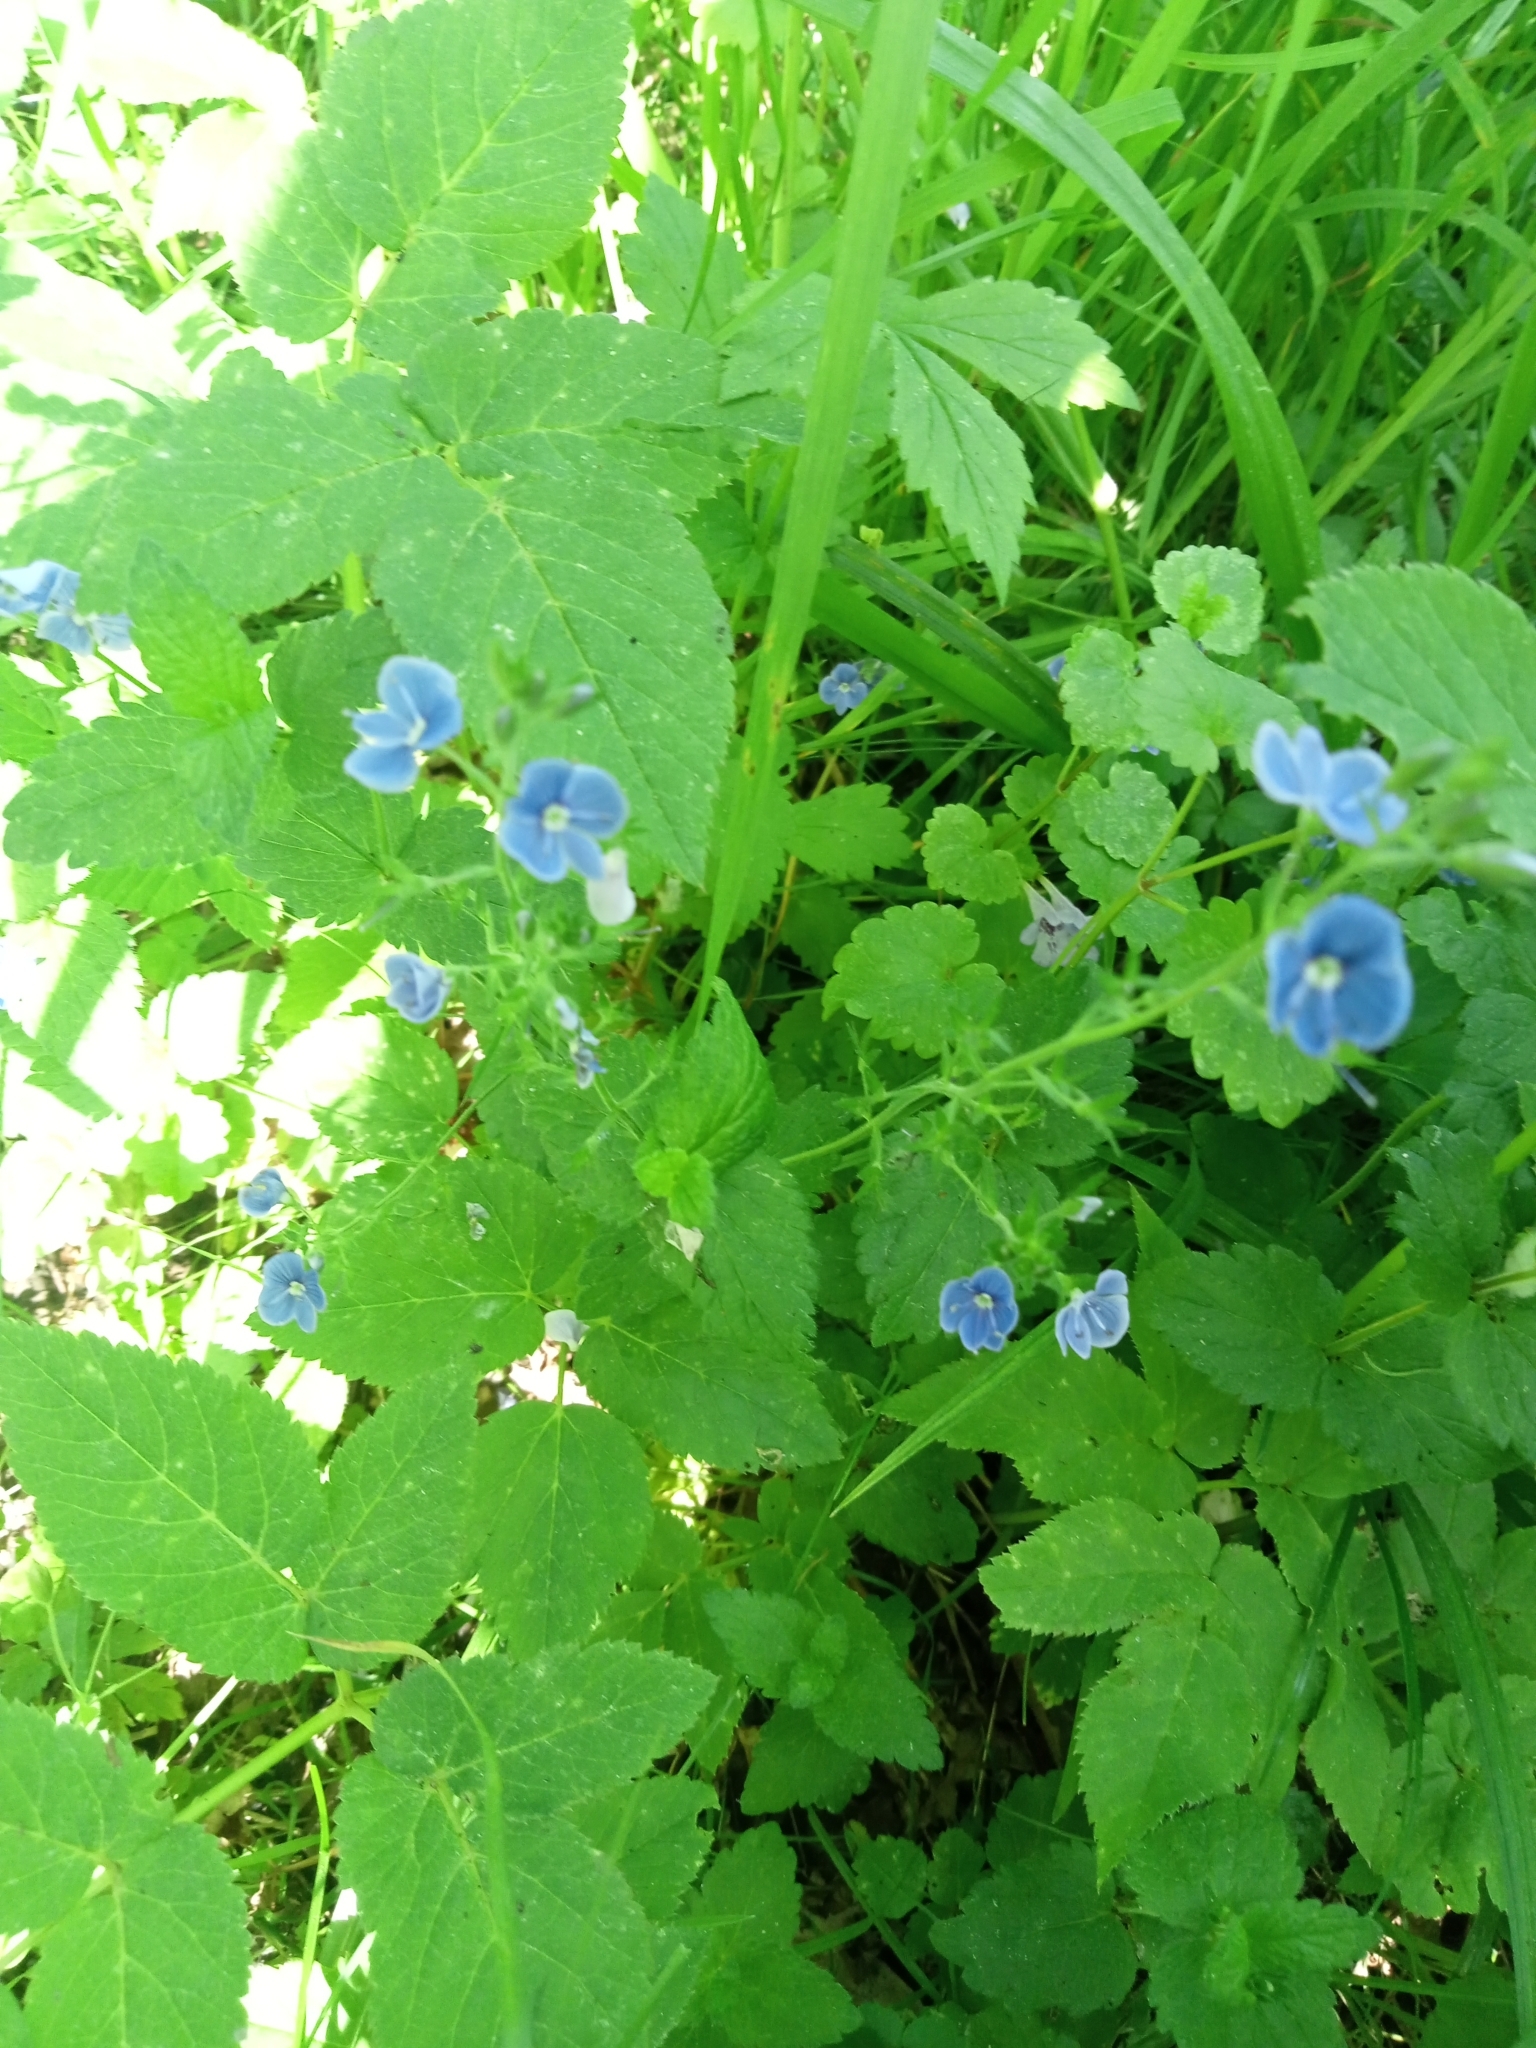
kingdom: Plantae
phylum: Tracheophyta
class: Magnoliopsida
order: Lamiales
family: Plantaginaceae
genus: Veronica
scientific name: Veronica chamaedrys
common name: Germander speedwell
